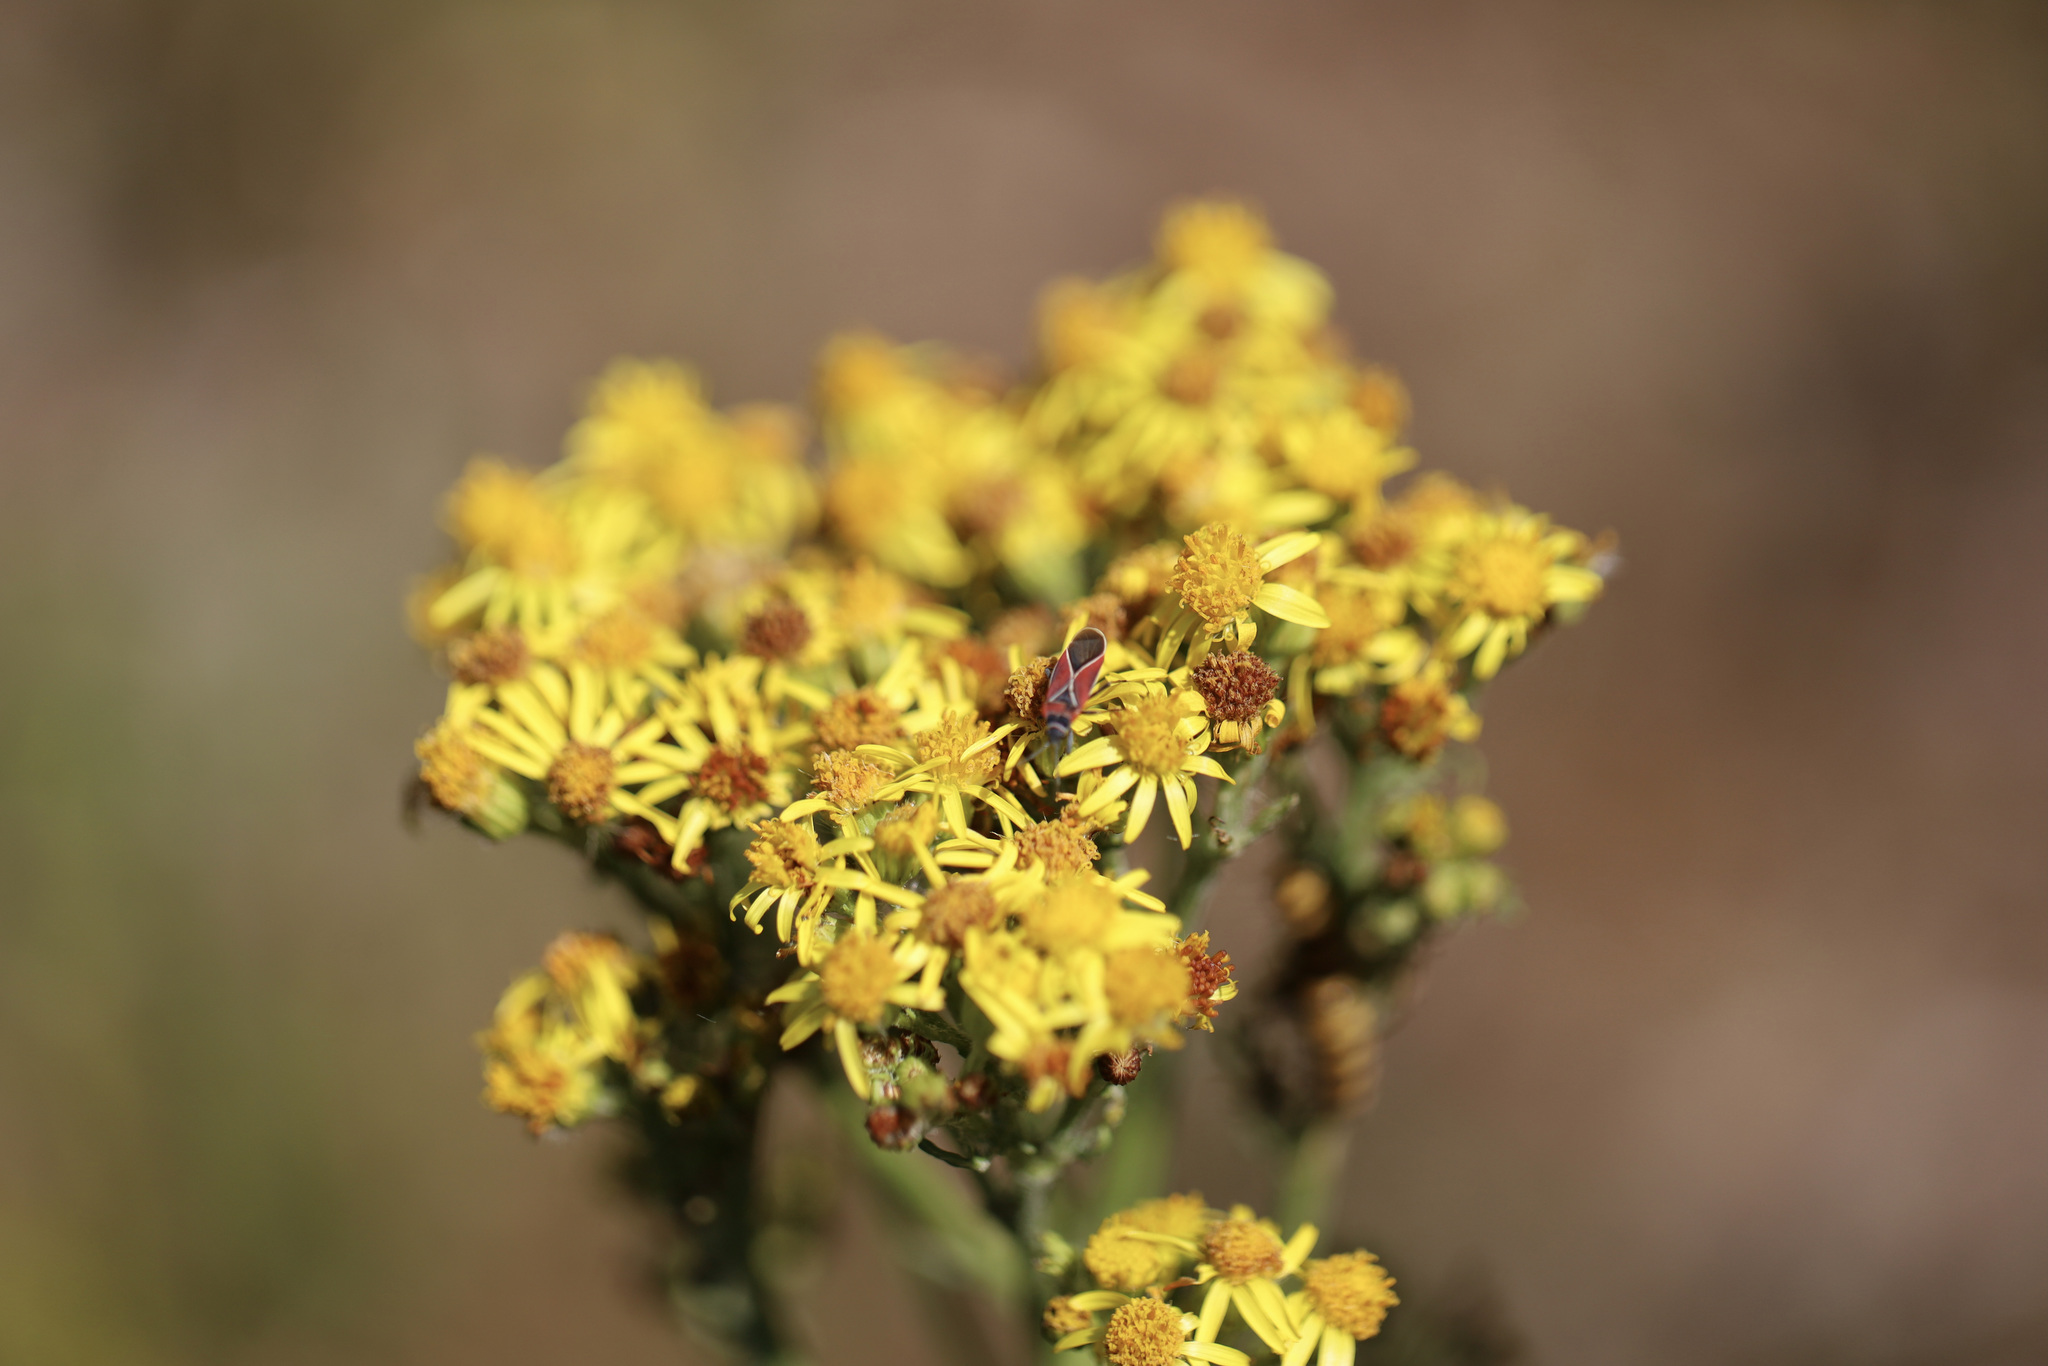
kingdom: Plantae
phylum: Tracheophyta
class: Magnoliopsida
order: Asterales
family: Asteraceae
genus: Jacobaea
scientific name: Jacobaea vulgaris
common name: Stinking willie
